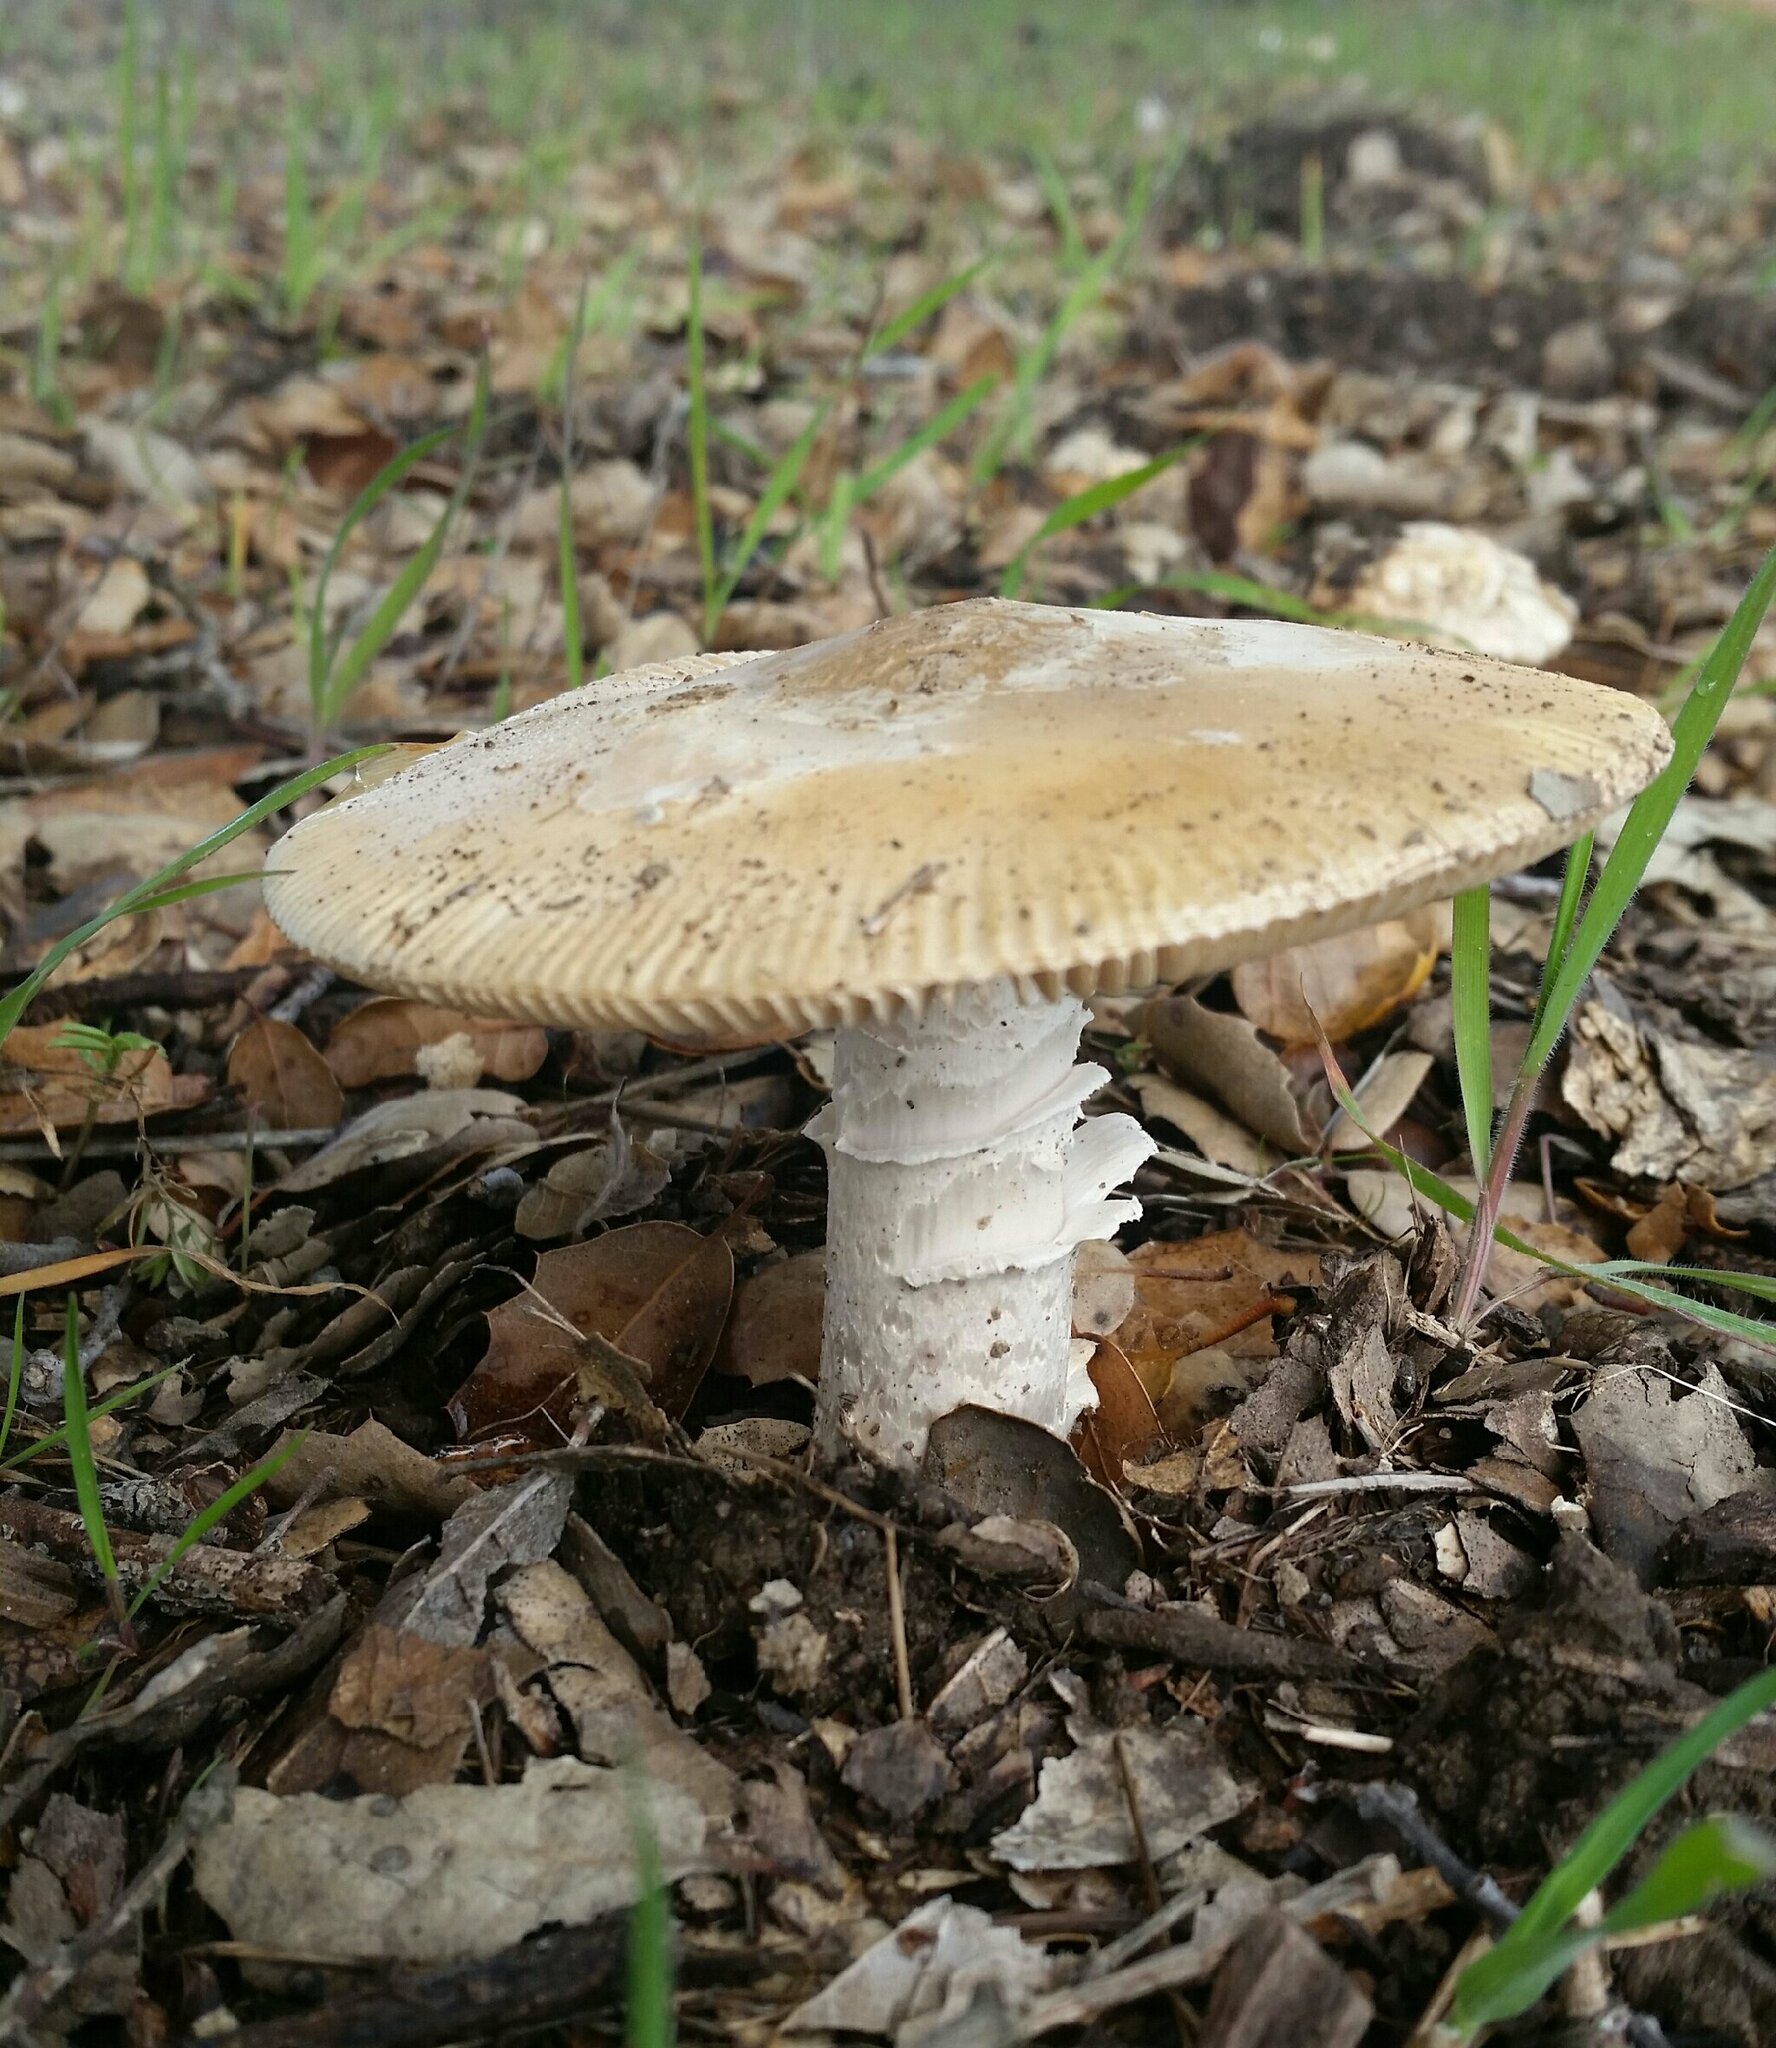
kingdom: Fungi
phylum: Basidiomycota
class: Agaricomycetes
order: Agaricales
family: Amanitaceae
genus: Amanita
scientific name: Amanita velosa
